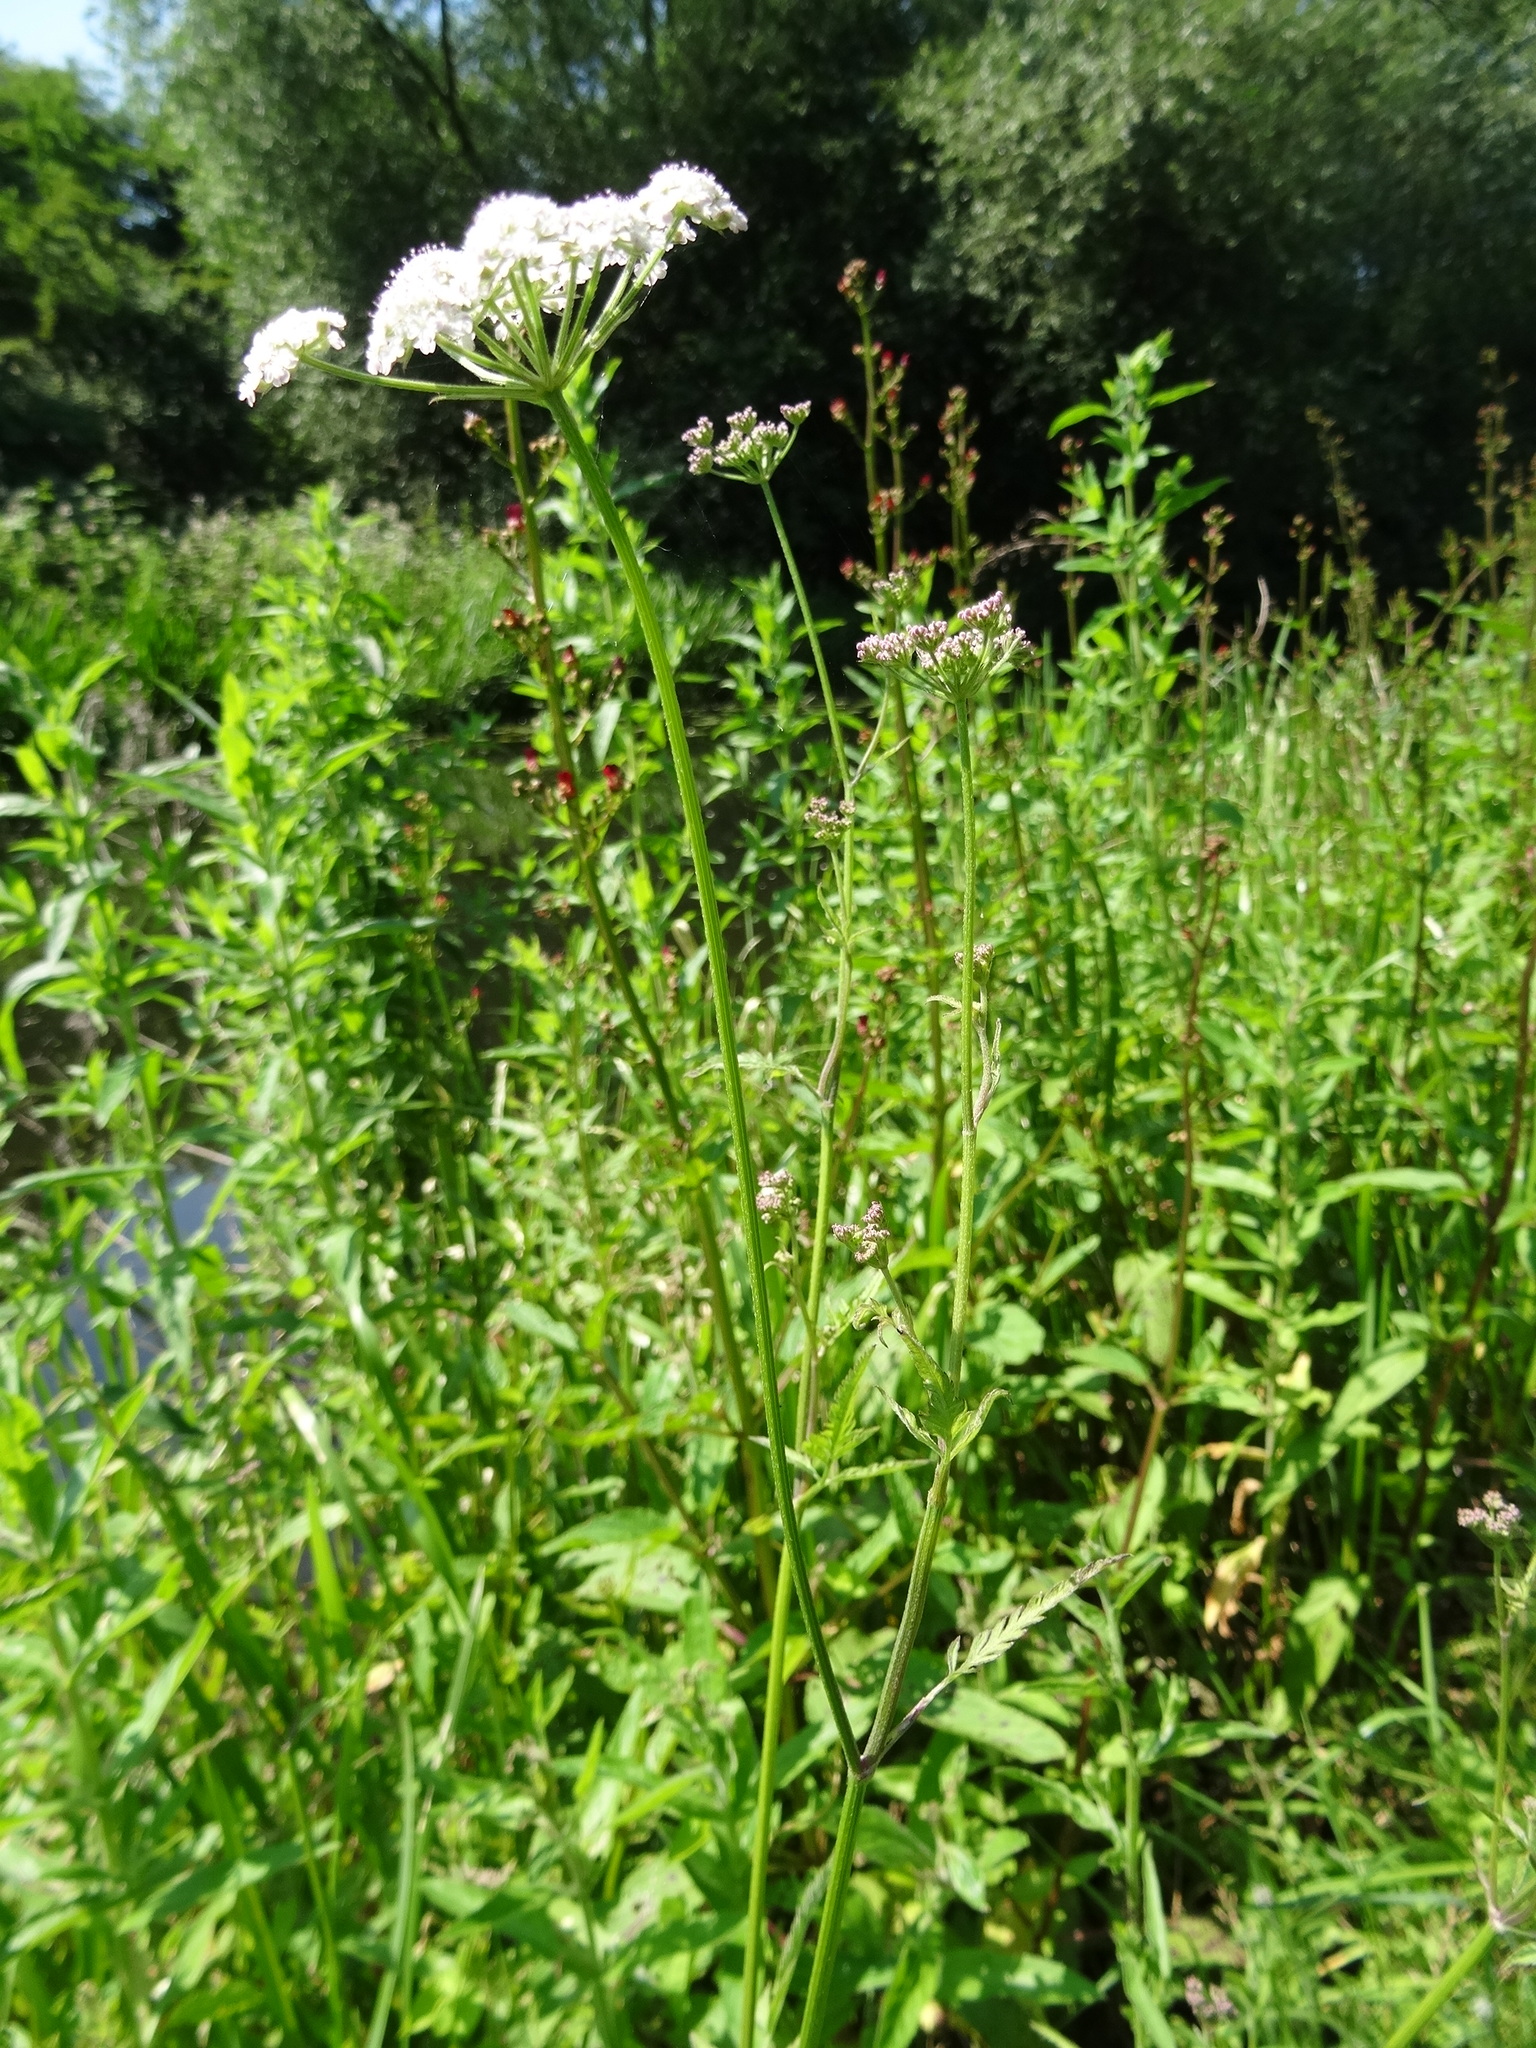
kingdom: Plantae
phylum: Tracheophyta
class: Magnoliopsida
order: Apiales
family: Apiaceae
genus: Torilis
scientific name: Torilis japonica
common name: Upright hedge-parsley
